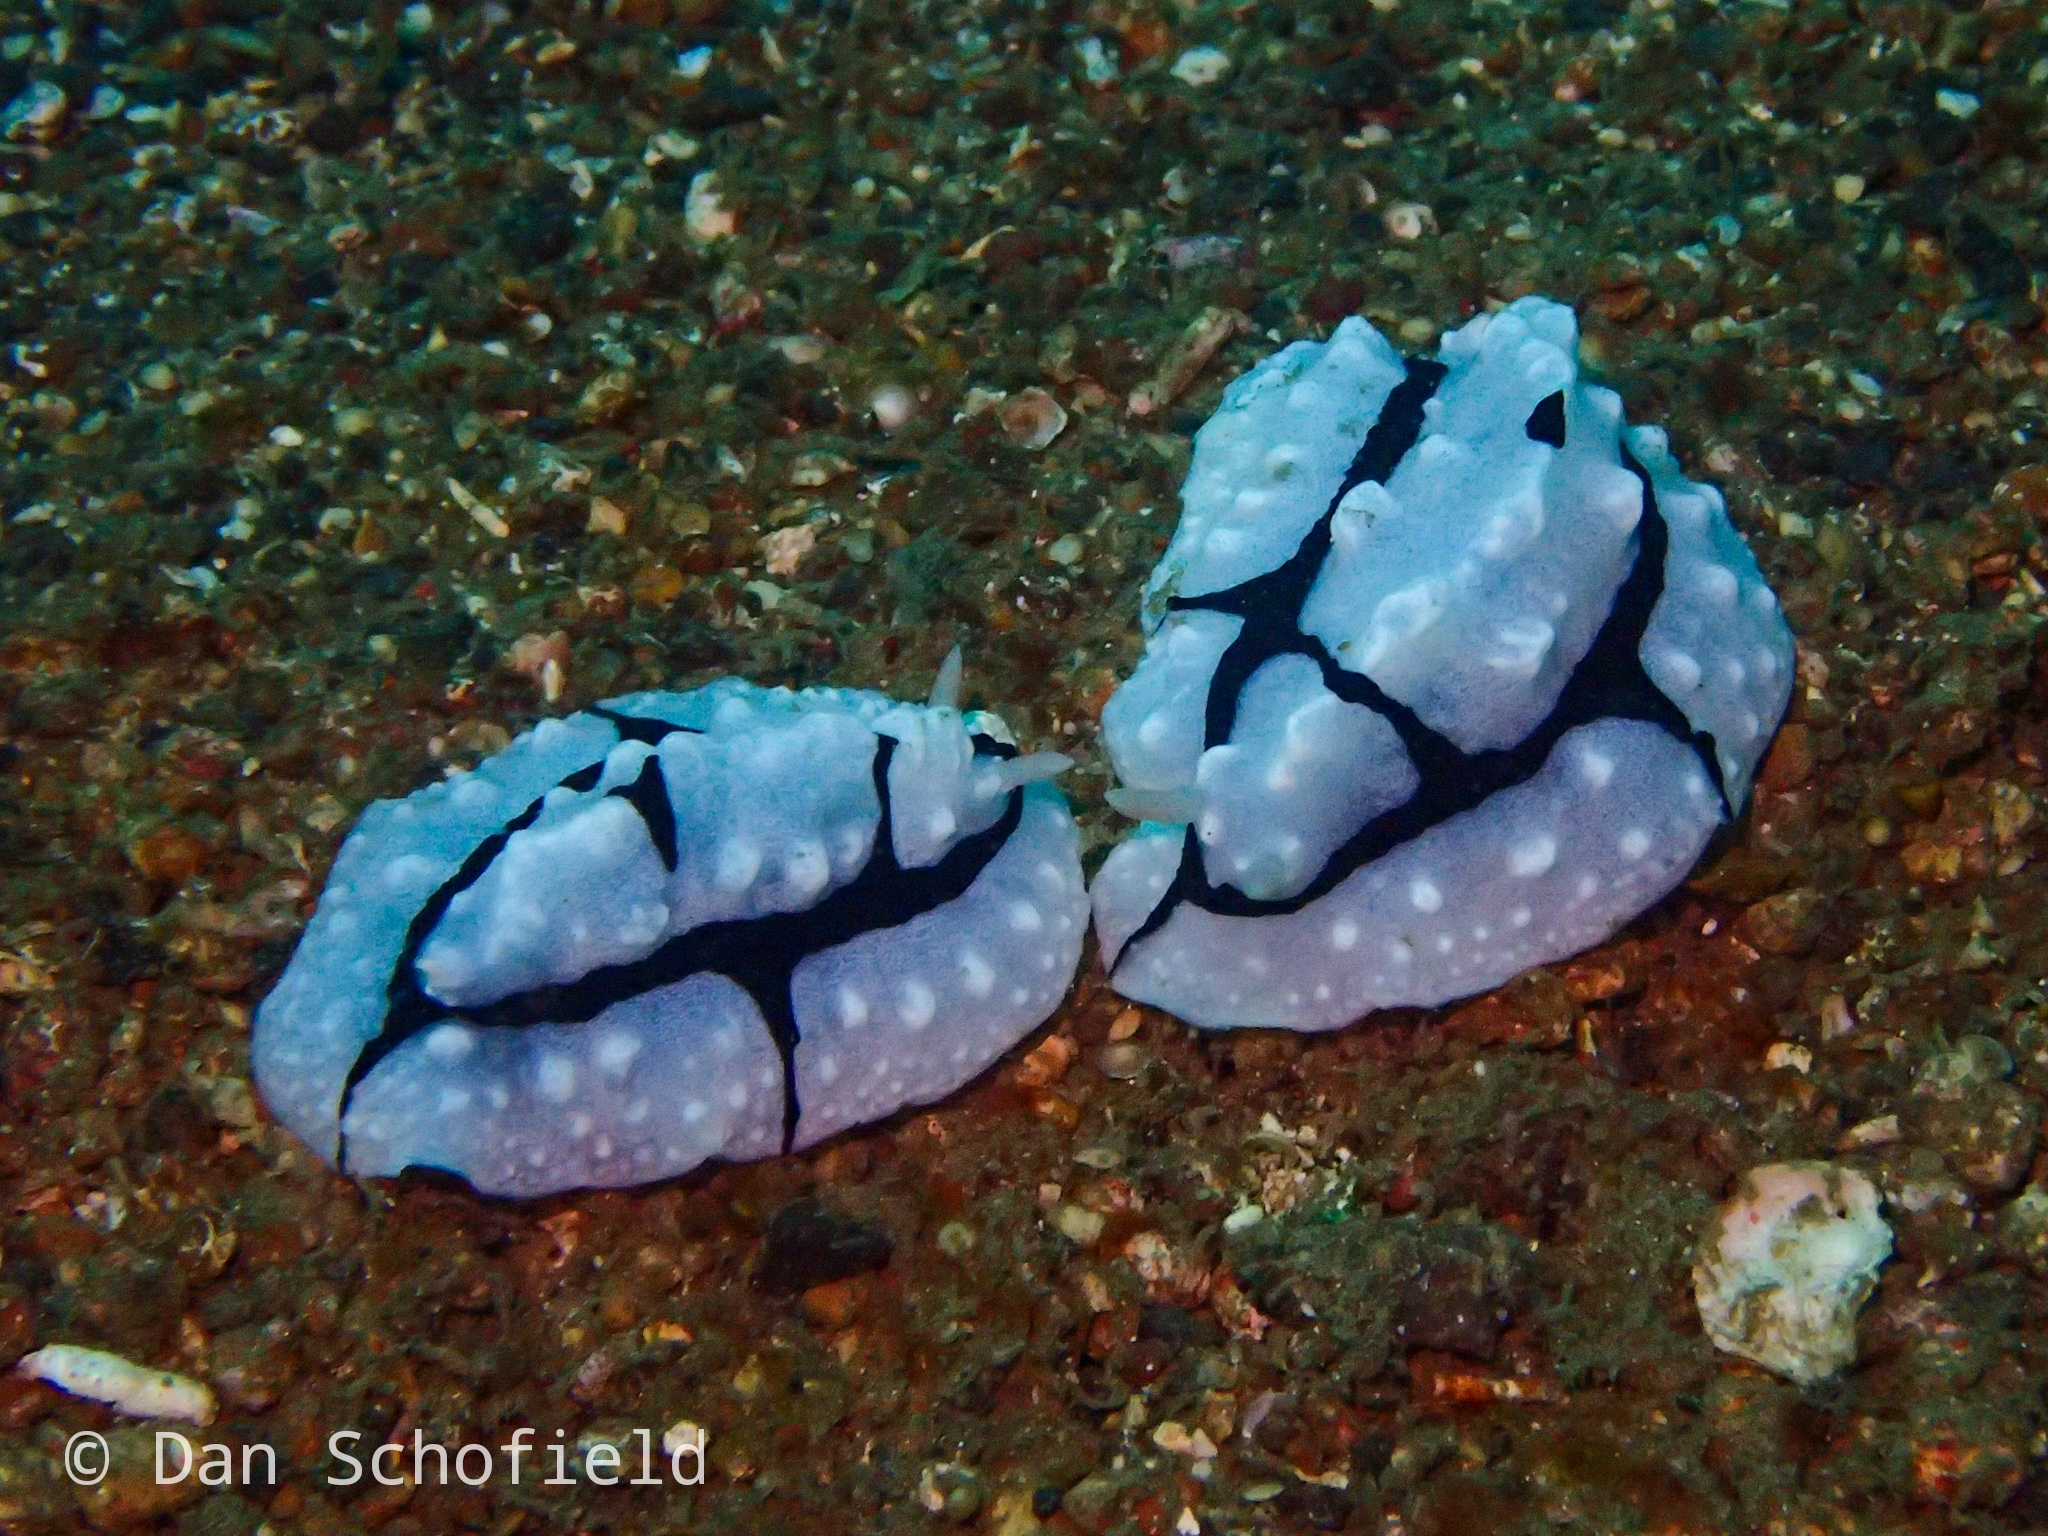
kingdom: Animalia
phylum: Mollusca
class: Gastropoda
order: Nudibranchia
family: Phyllidiidae
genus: Phyllidiopsis
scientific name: Phyllidiopsis shireenae
